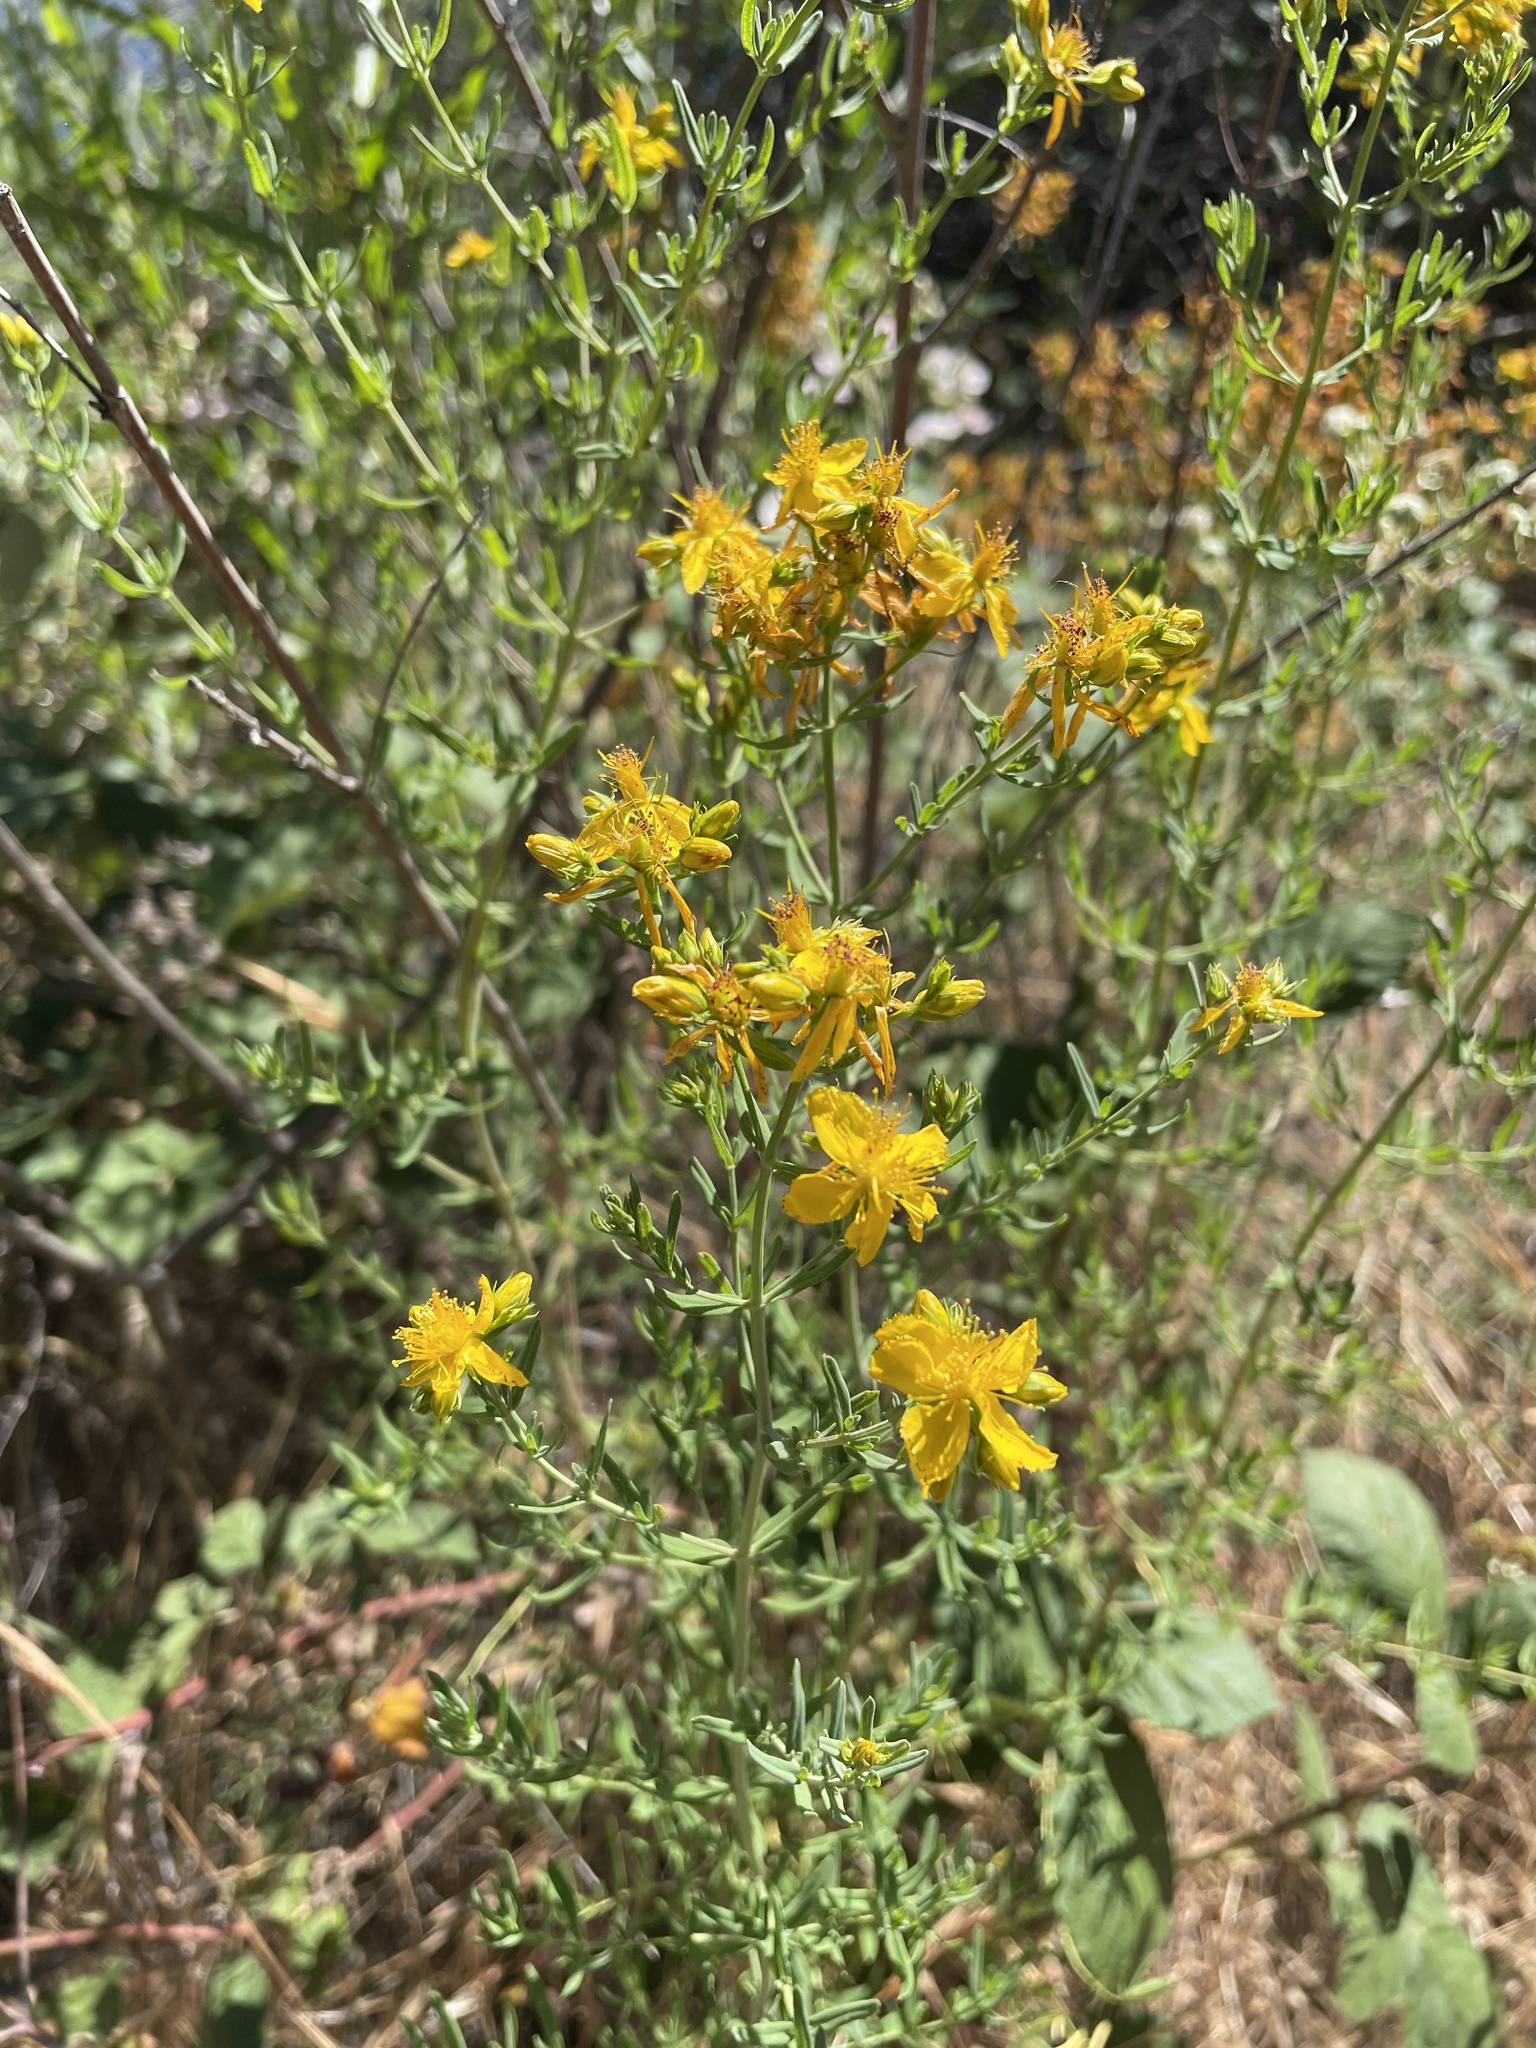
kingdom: Plantae
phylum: Tracheophyta
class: Magnoliopsida
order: Malpighiales
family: Hypericaceae
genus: Hypericum
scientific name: Hypericum perforatum
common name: Common st. johnswort
